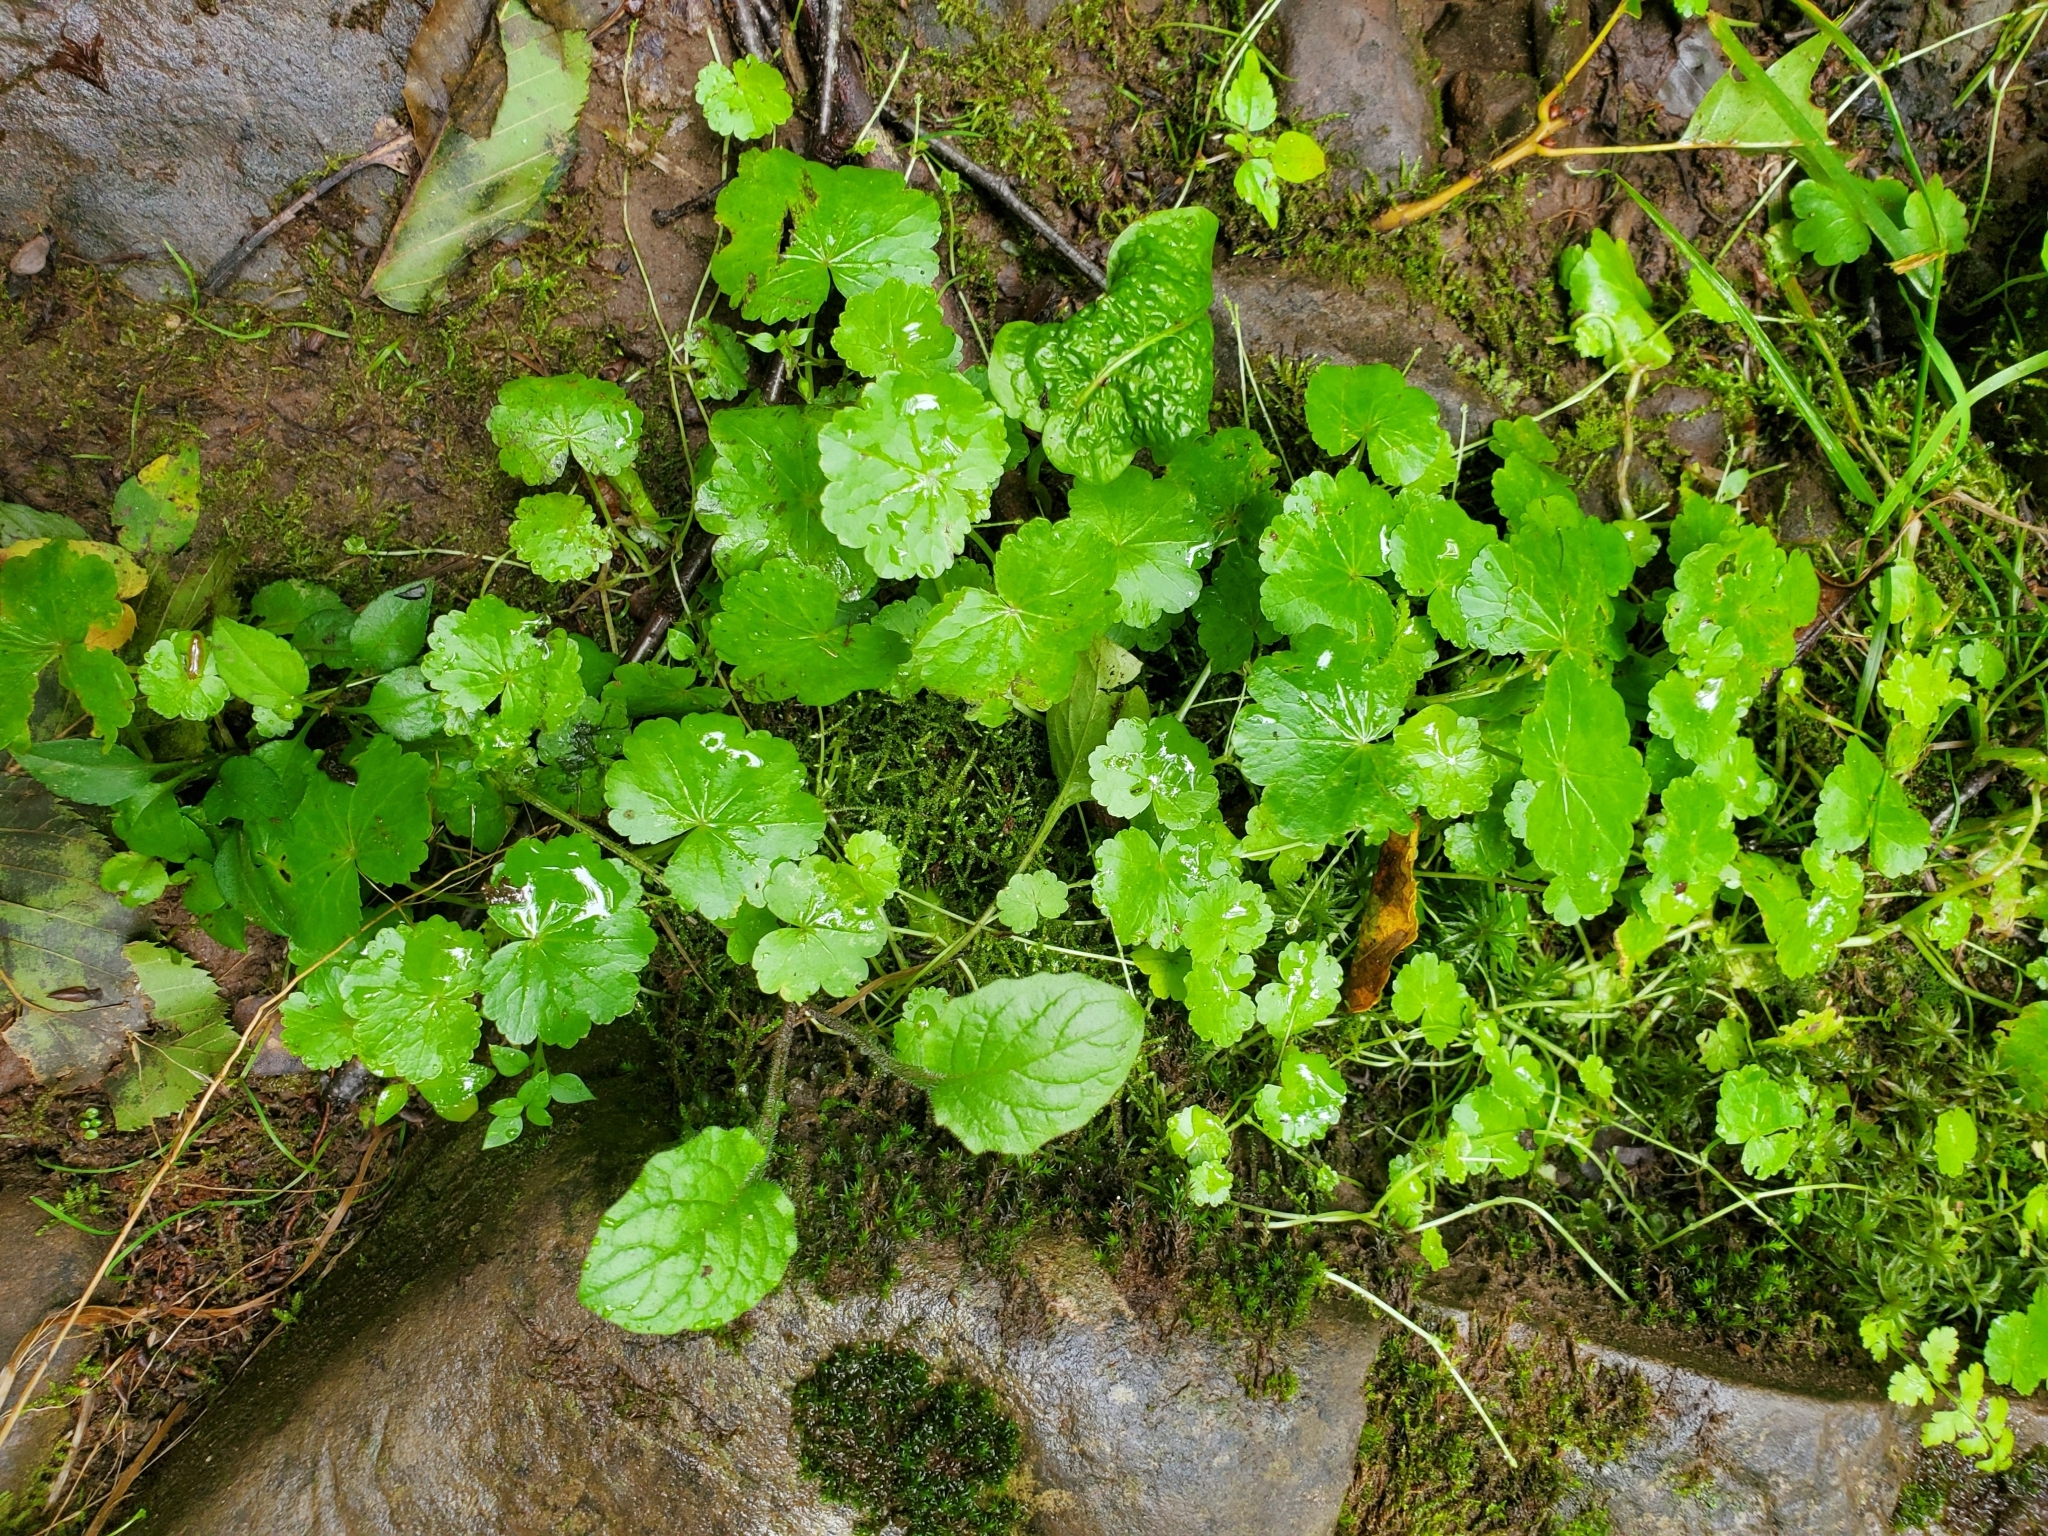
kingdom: Plantae
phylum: Tracheophyta
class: Magnoliopsida
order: Apiales
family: Araliaceae
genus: Hydrocotyle
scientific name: Hydrocotyle americana
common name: American water-pennywort
